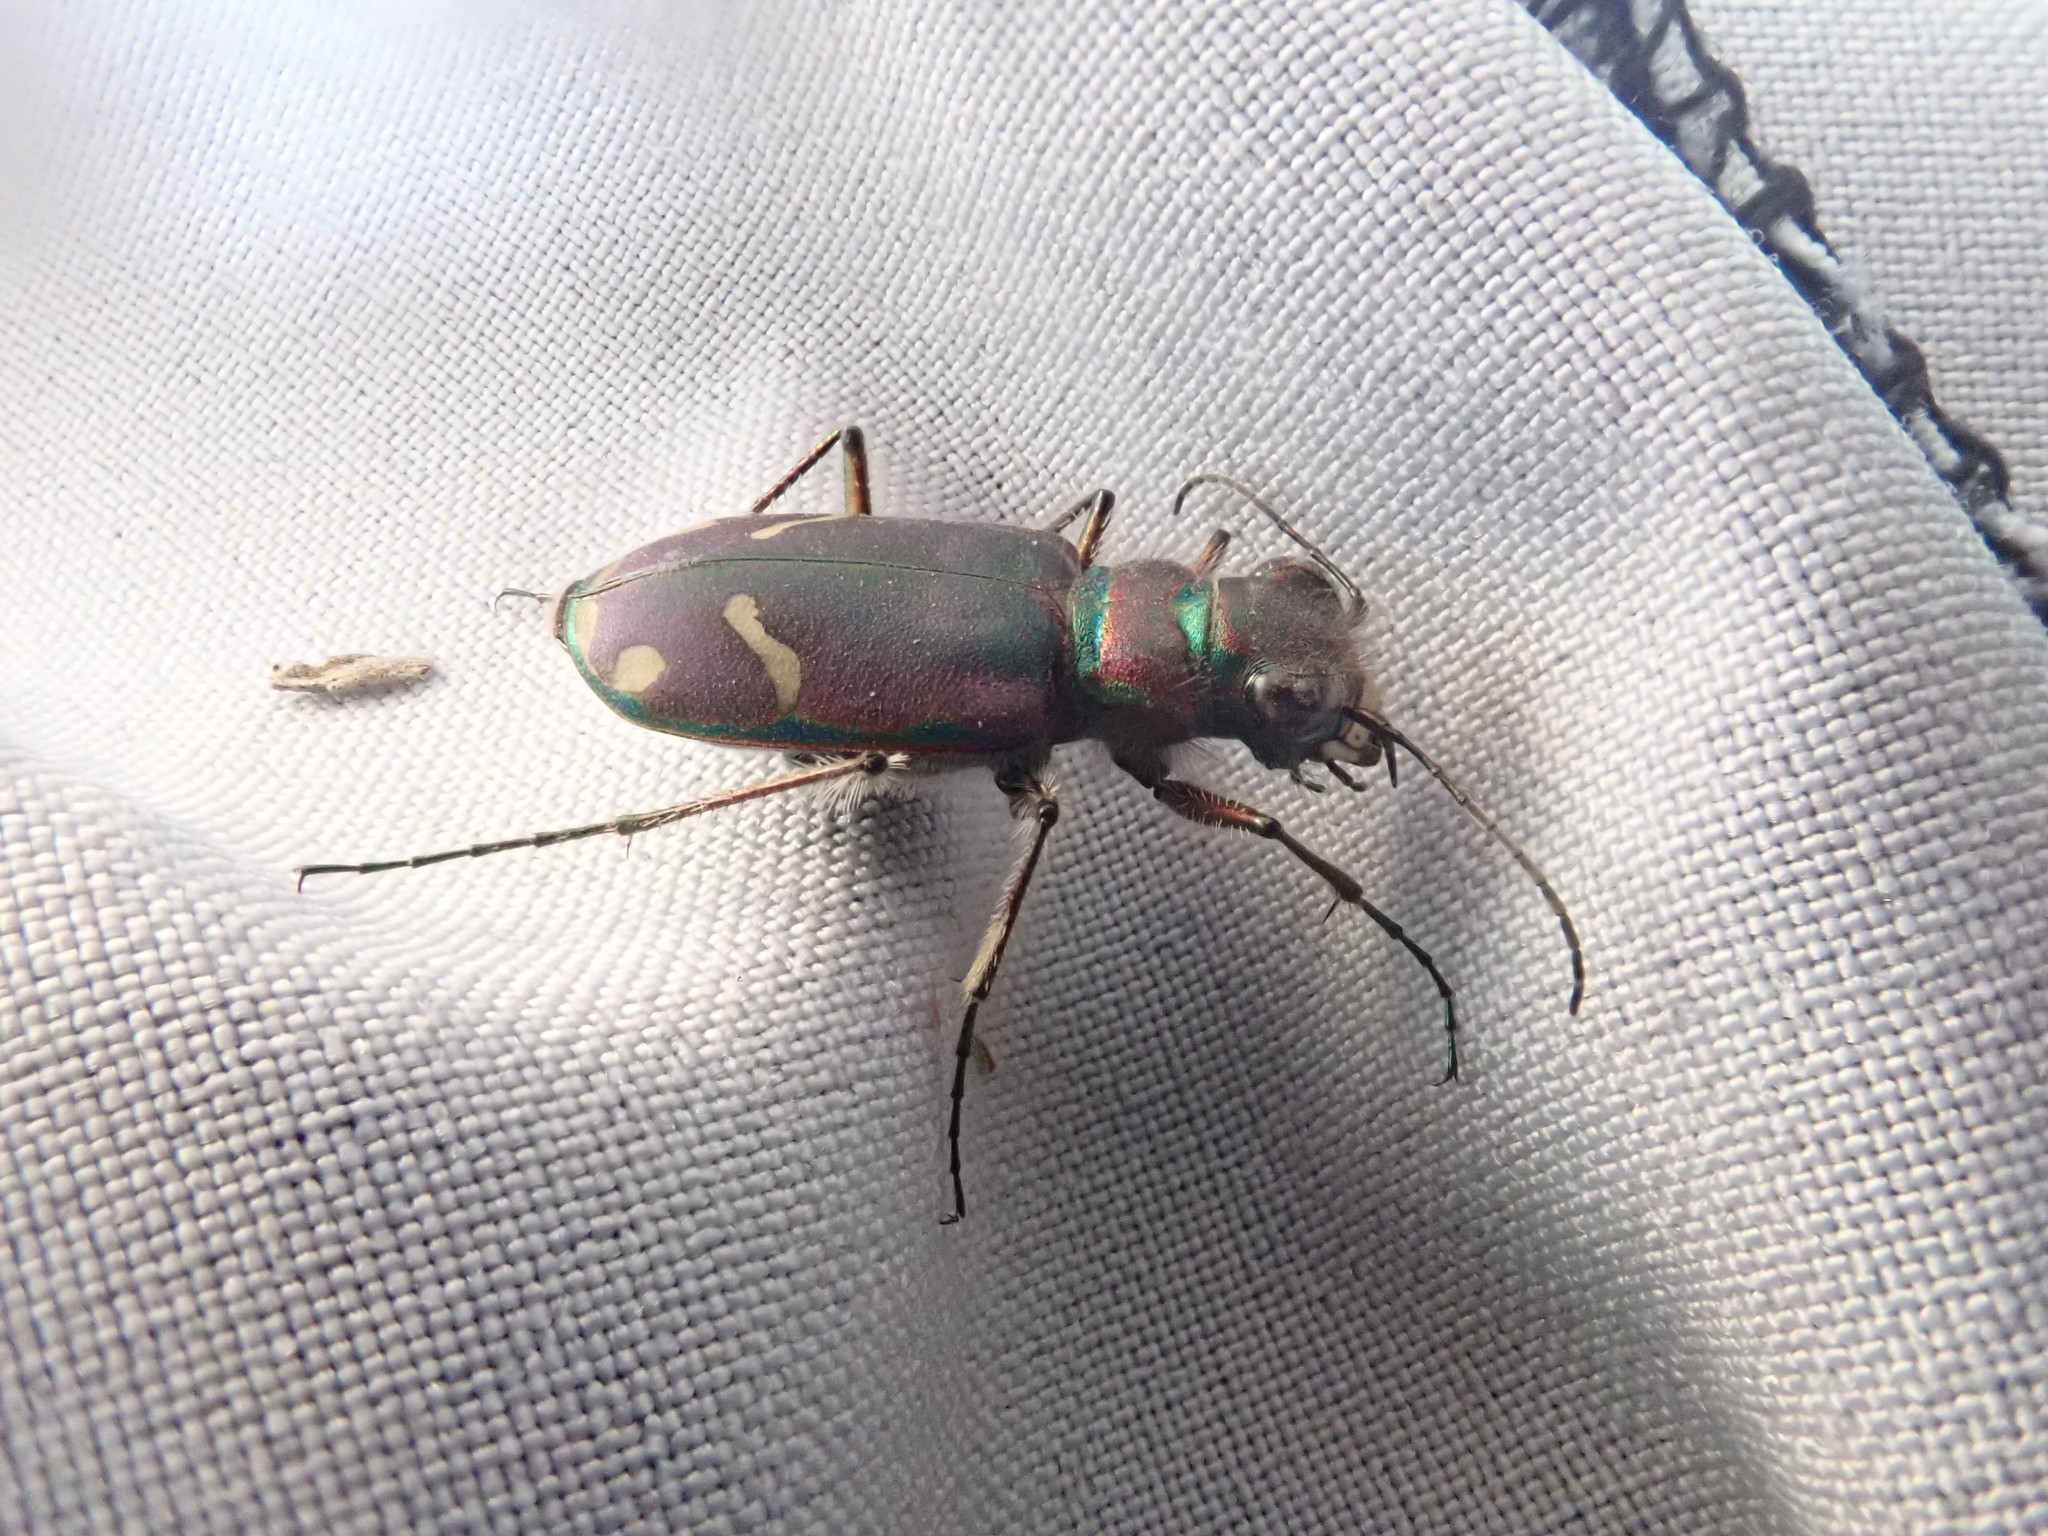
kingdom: Animalia
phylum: Arthropoda
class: Insecta
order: Coleoptera
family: Carabidae
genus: Cicindela
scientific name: Cicindela purpurea
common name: Cow path tiger beetle
